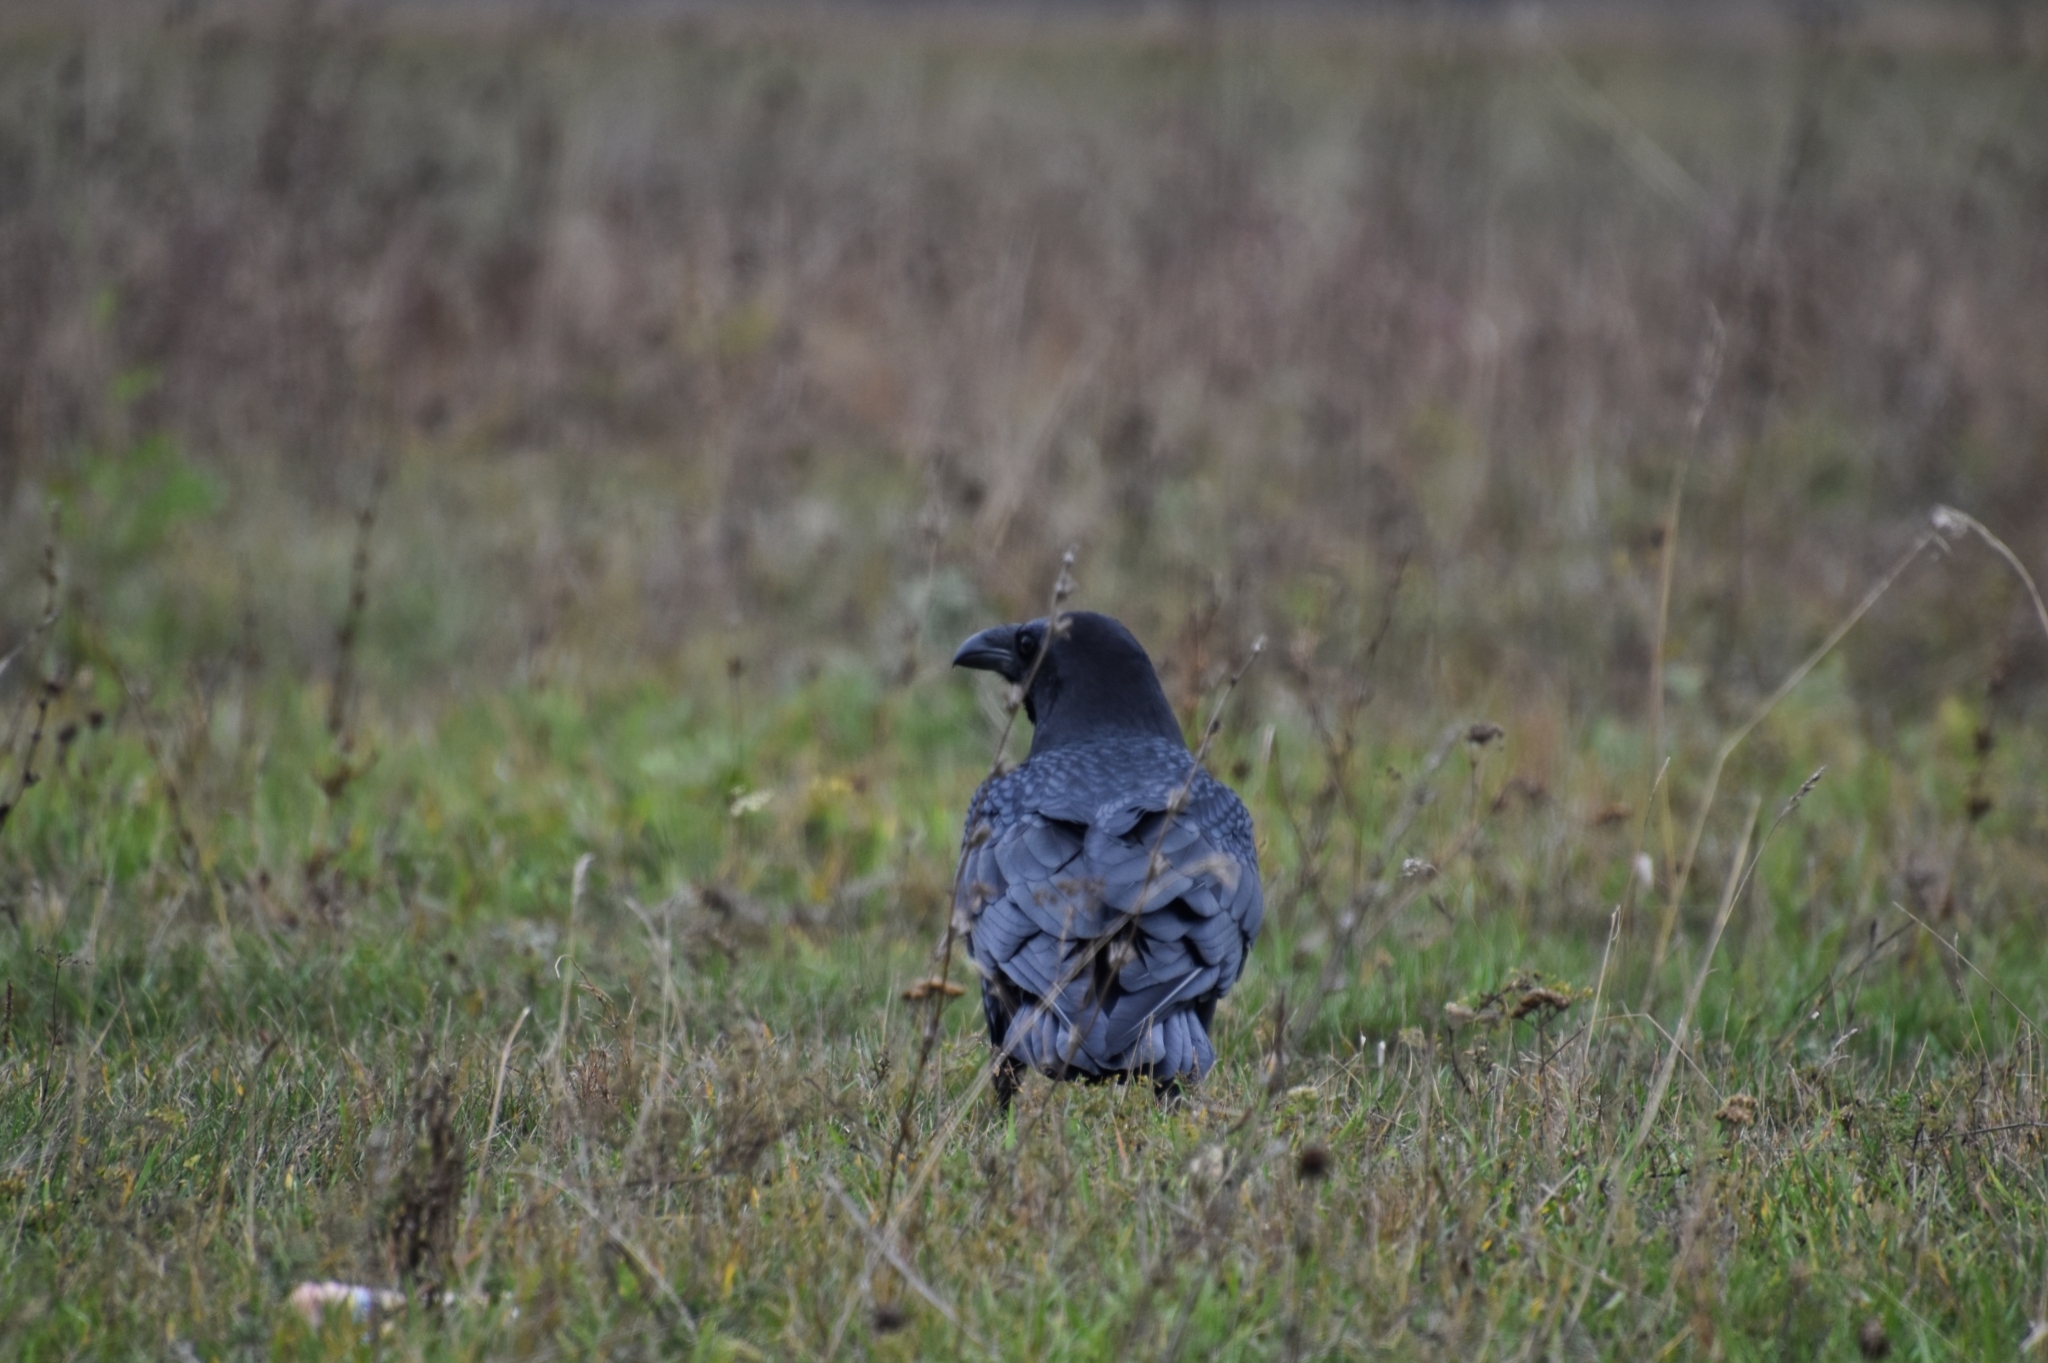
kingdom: Animalia
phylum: Chordata
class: Aves
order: Passeriformes
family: Corvidae
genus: Corvus
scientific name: Corvus corax
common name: Common raven
